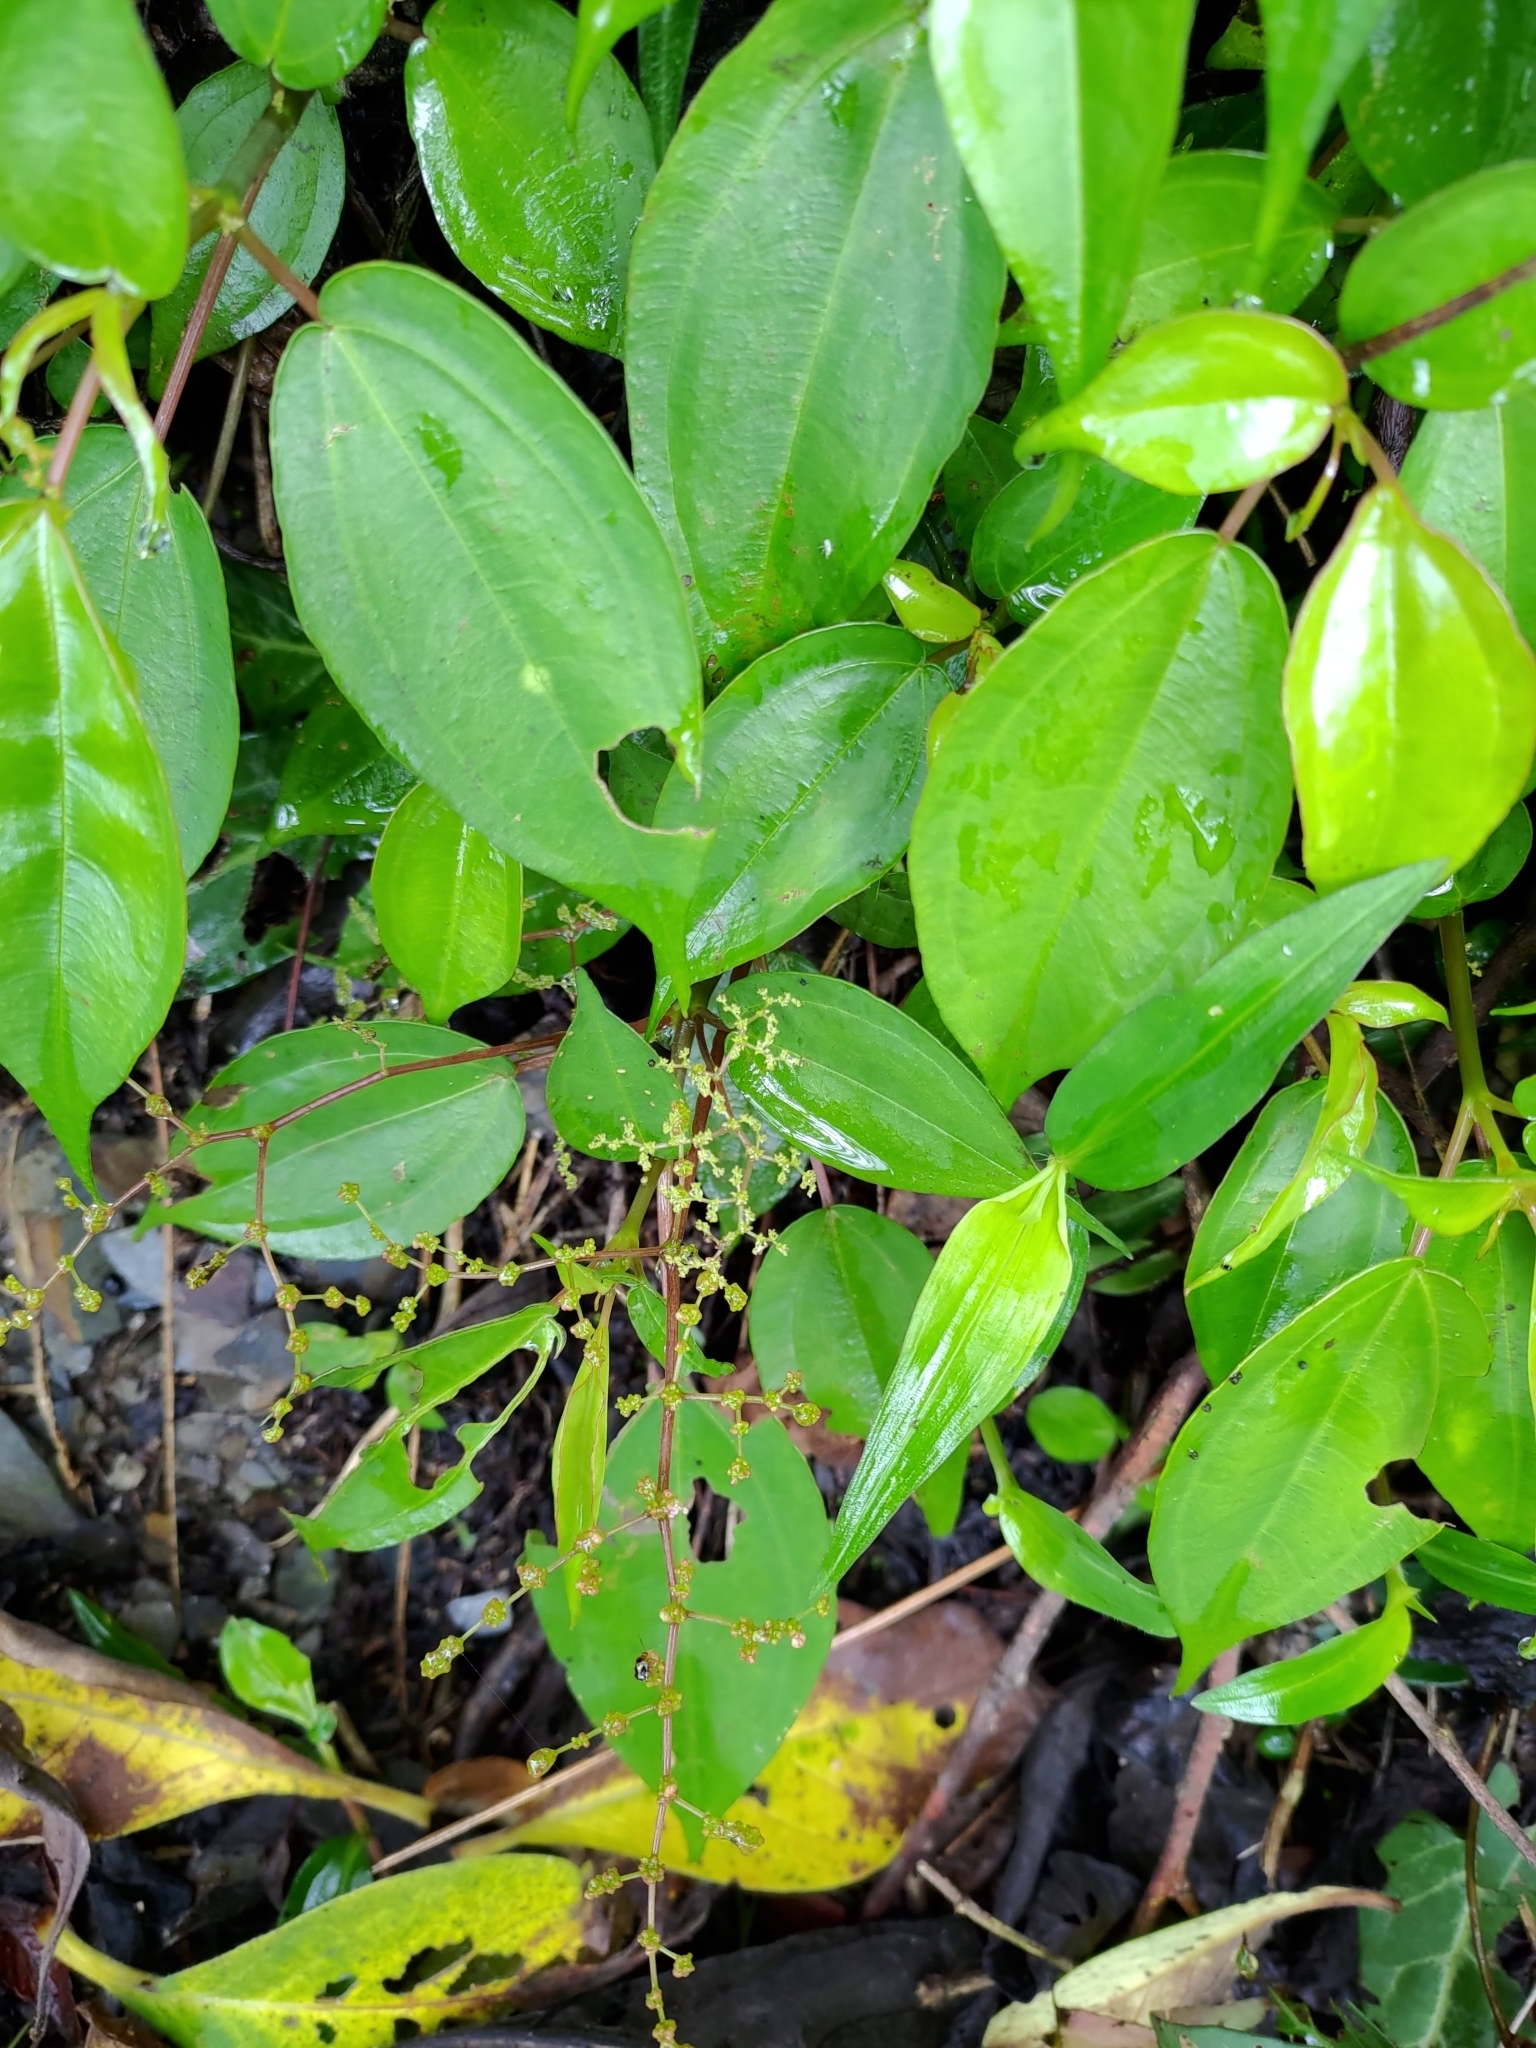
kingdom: Plantae
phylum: Tracheophyta
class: Magnoliopsida
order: Rosales
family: Urticaceae
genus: Pilea
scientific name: Pilea plataniflora
